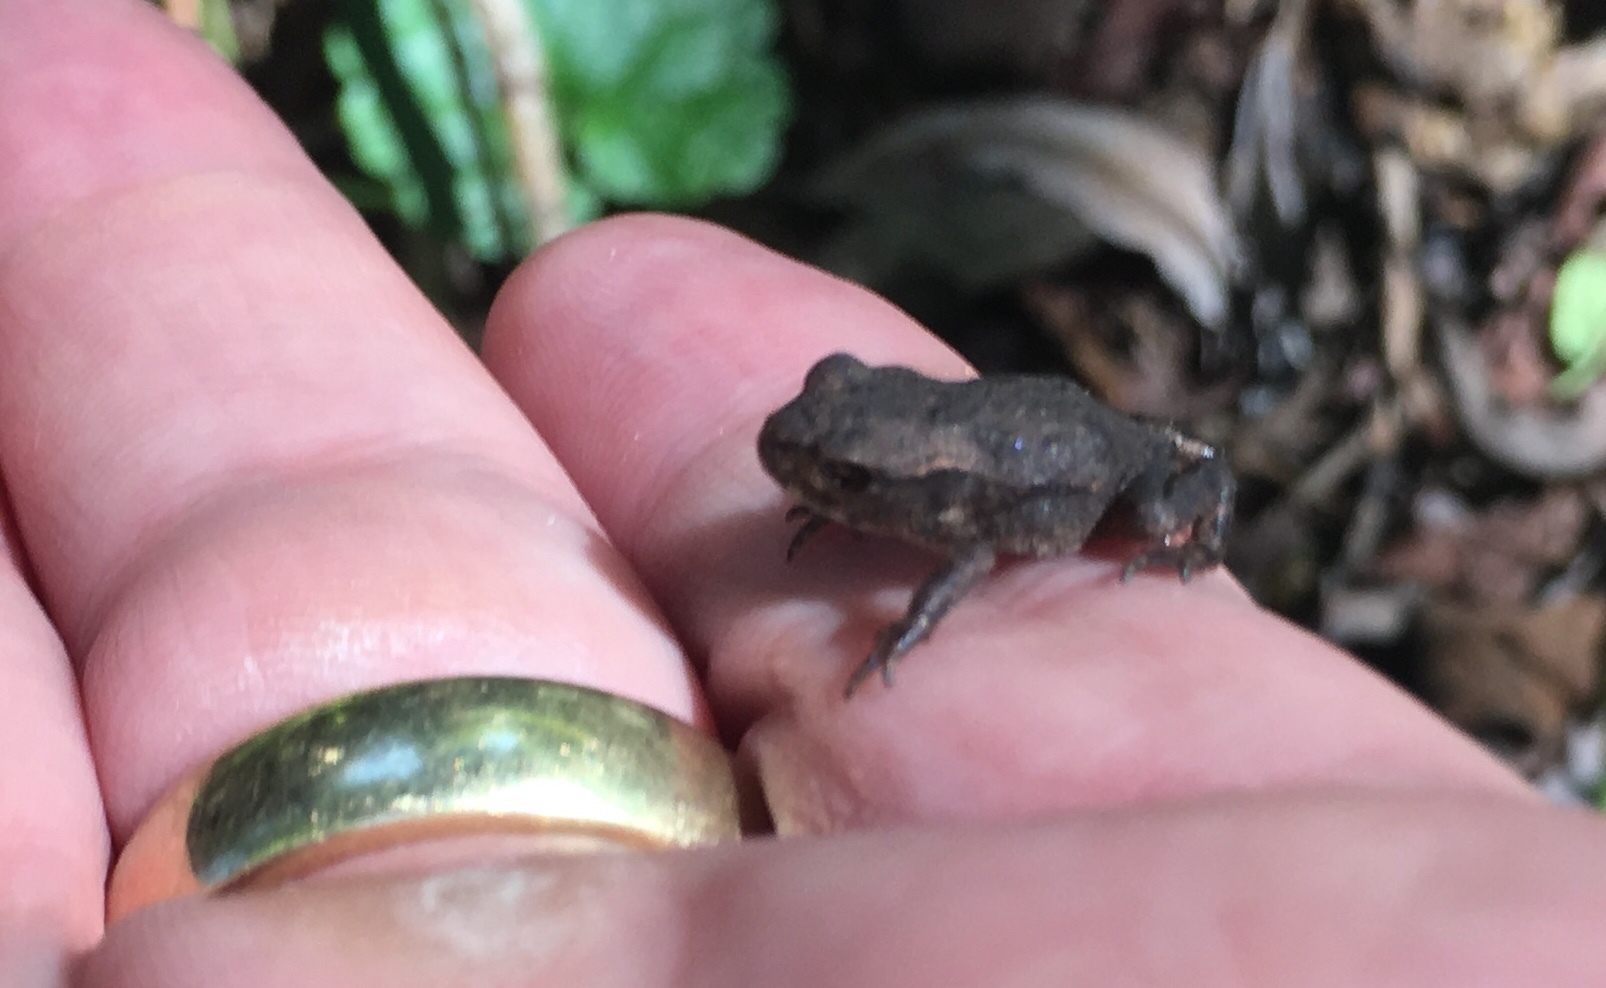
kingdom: Animalia
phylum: Chordata
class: Amphibia
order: Anura
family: Bufonidae
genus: Bufo
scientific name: Bufo bufo
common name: Common toad
